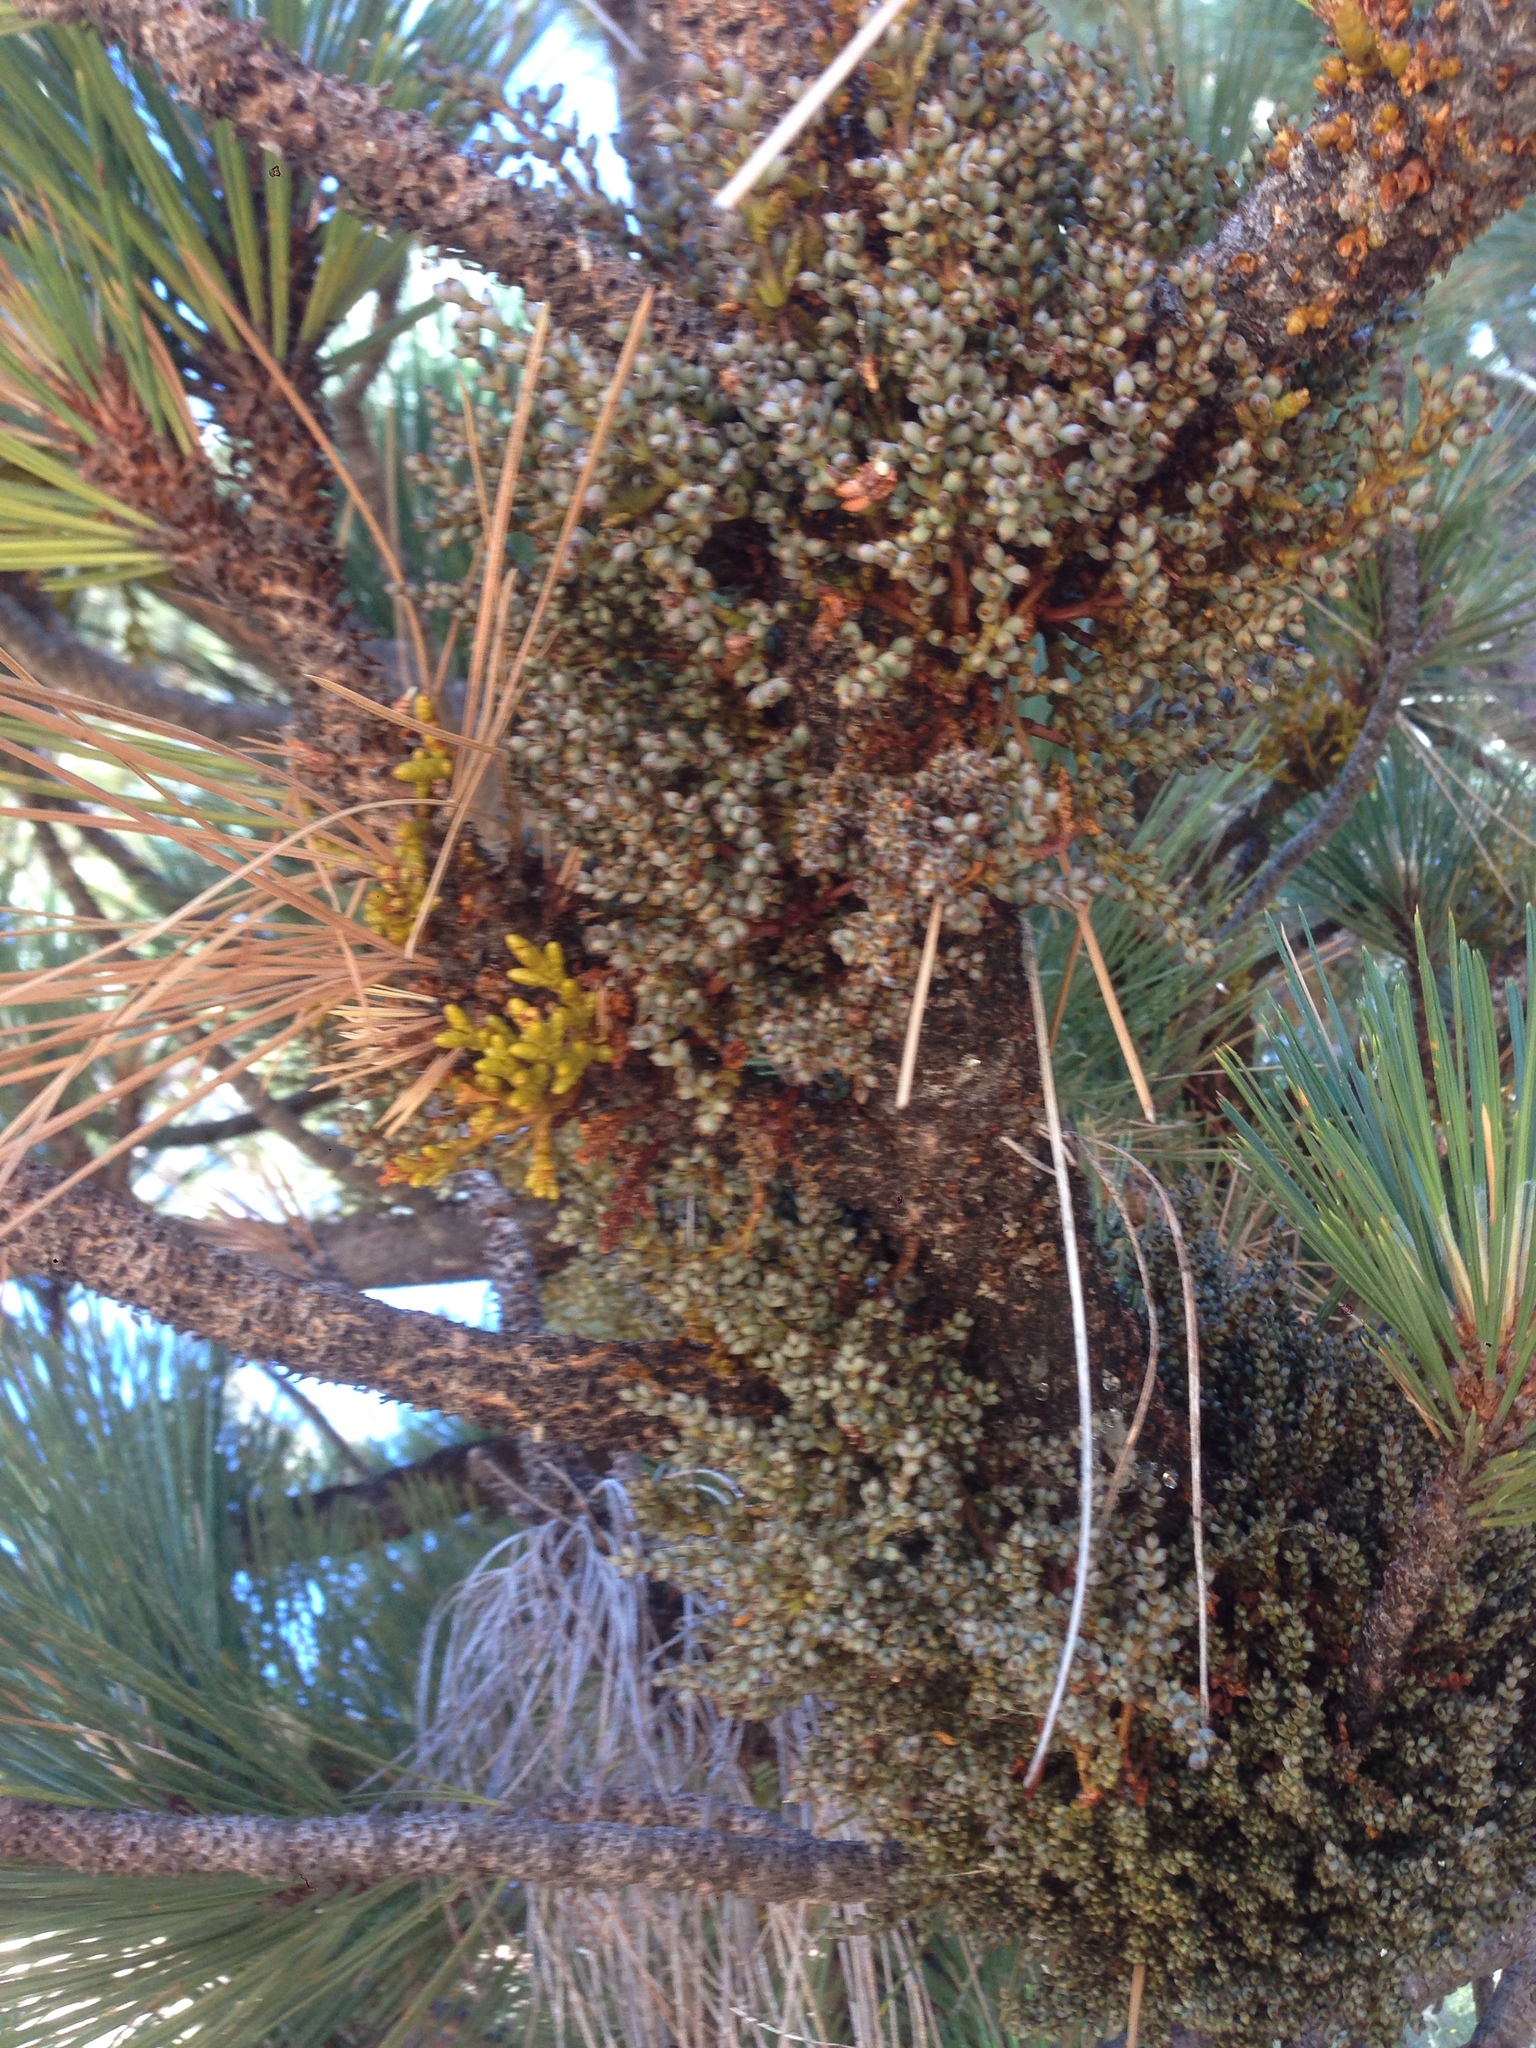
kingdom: Plantae
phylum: Tracheophyta
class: Magnoliopsida
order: Santalales
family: Viscaceae
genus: Arceuthobium
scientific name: Arceuthobium campylopodum
